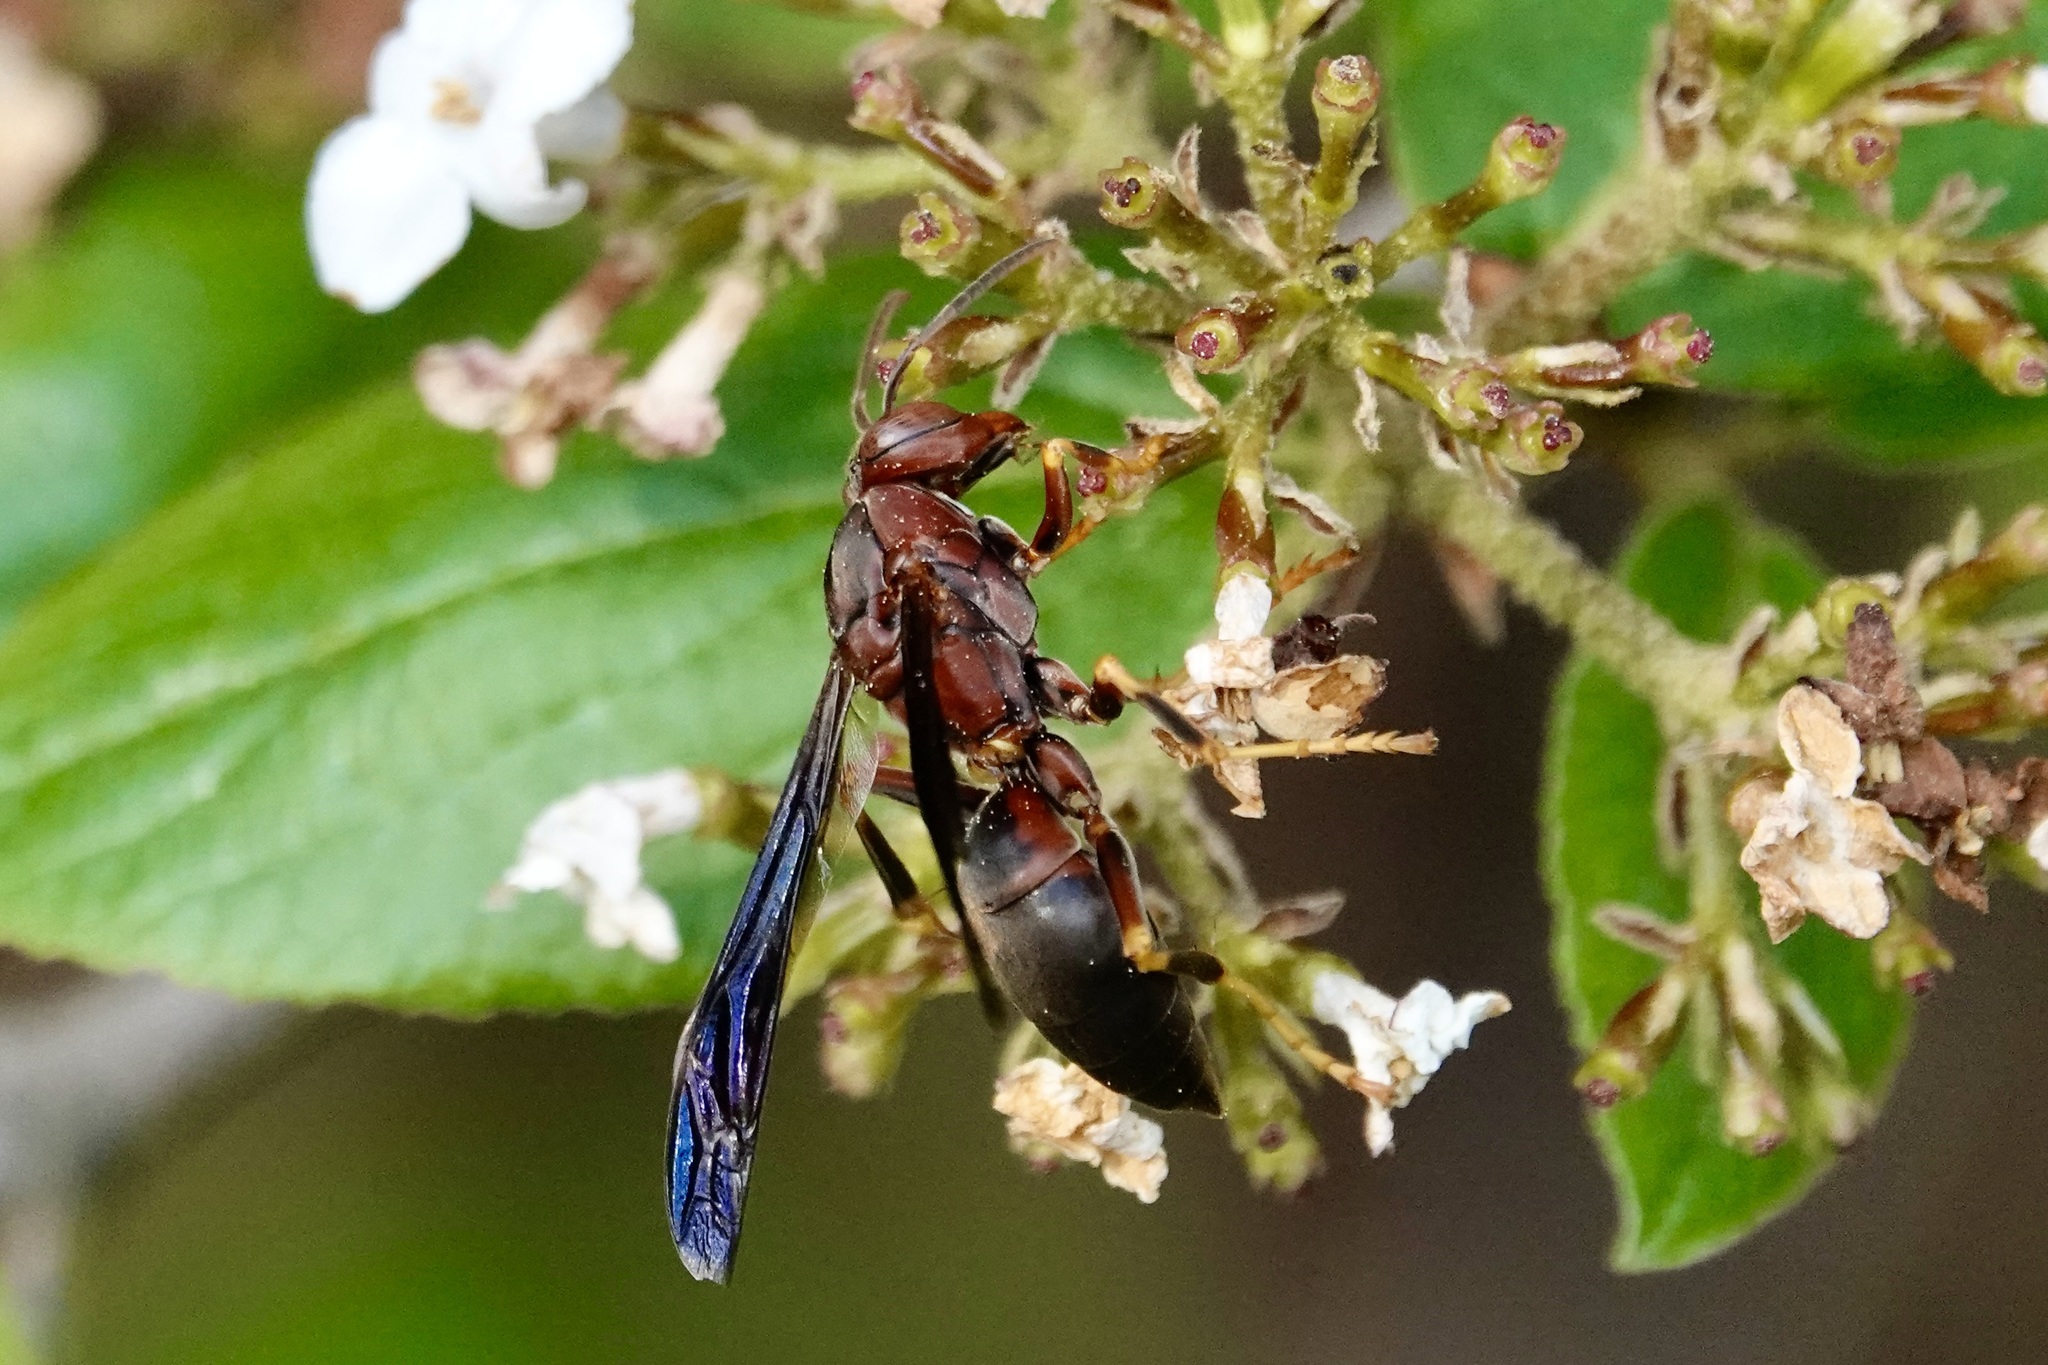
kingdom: Animalia
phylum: Arthropoda
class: Insecta
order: Hymenoptera
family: Eumenidae
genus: Polistes
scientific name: Polistes metricus
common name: Metric paper wasp
